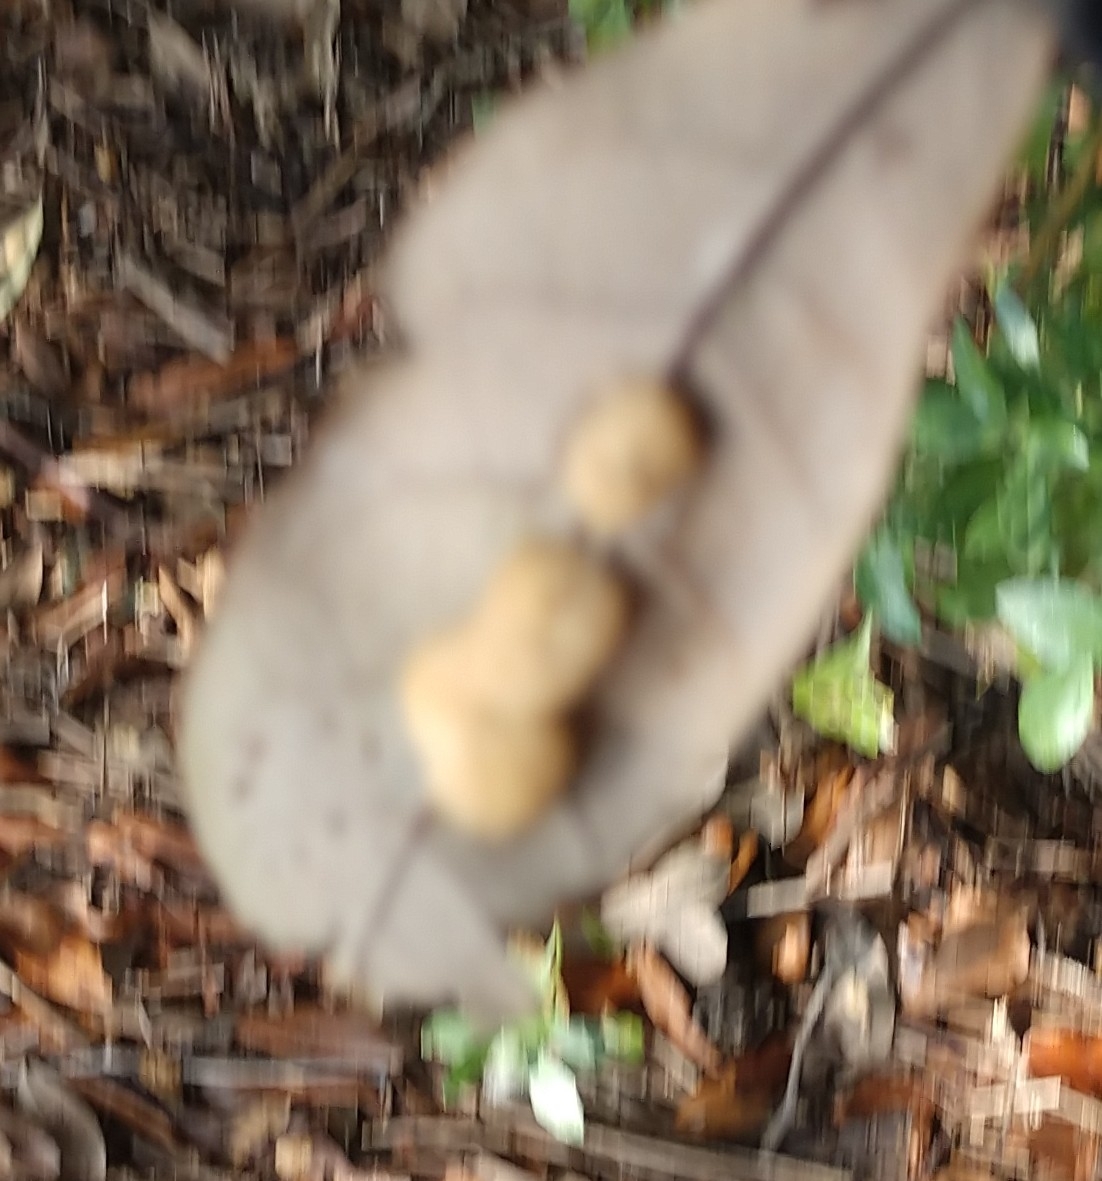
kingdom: Animalia
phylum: Arthropoda
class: Insecta
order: Hymenoptera
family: Cynipidae
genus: Andricus
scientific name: Andricus Druon quercuslanigerum
